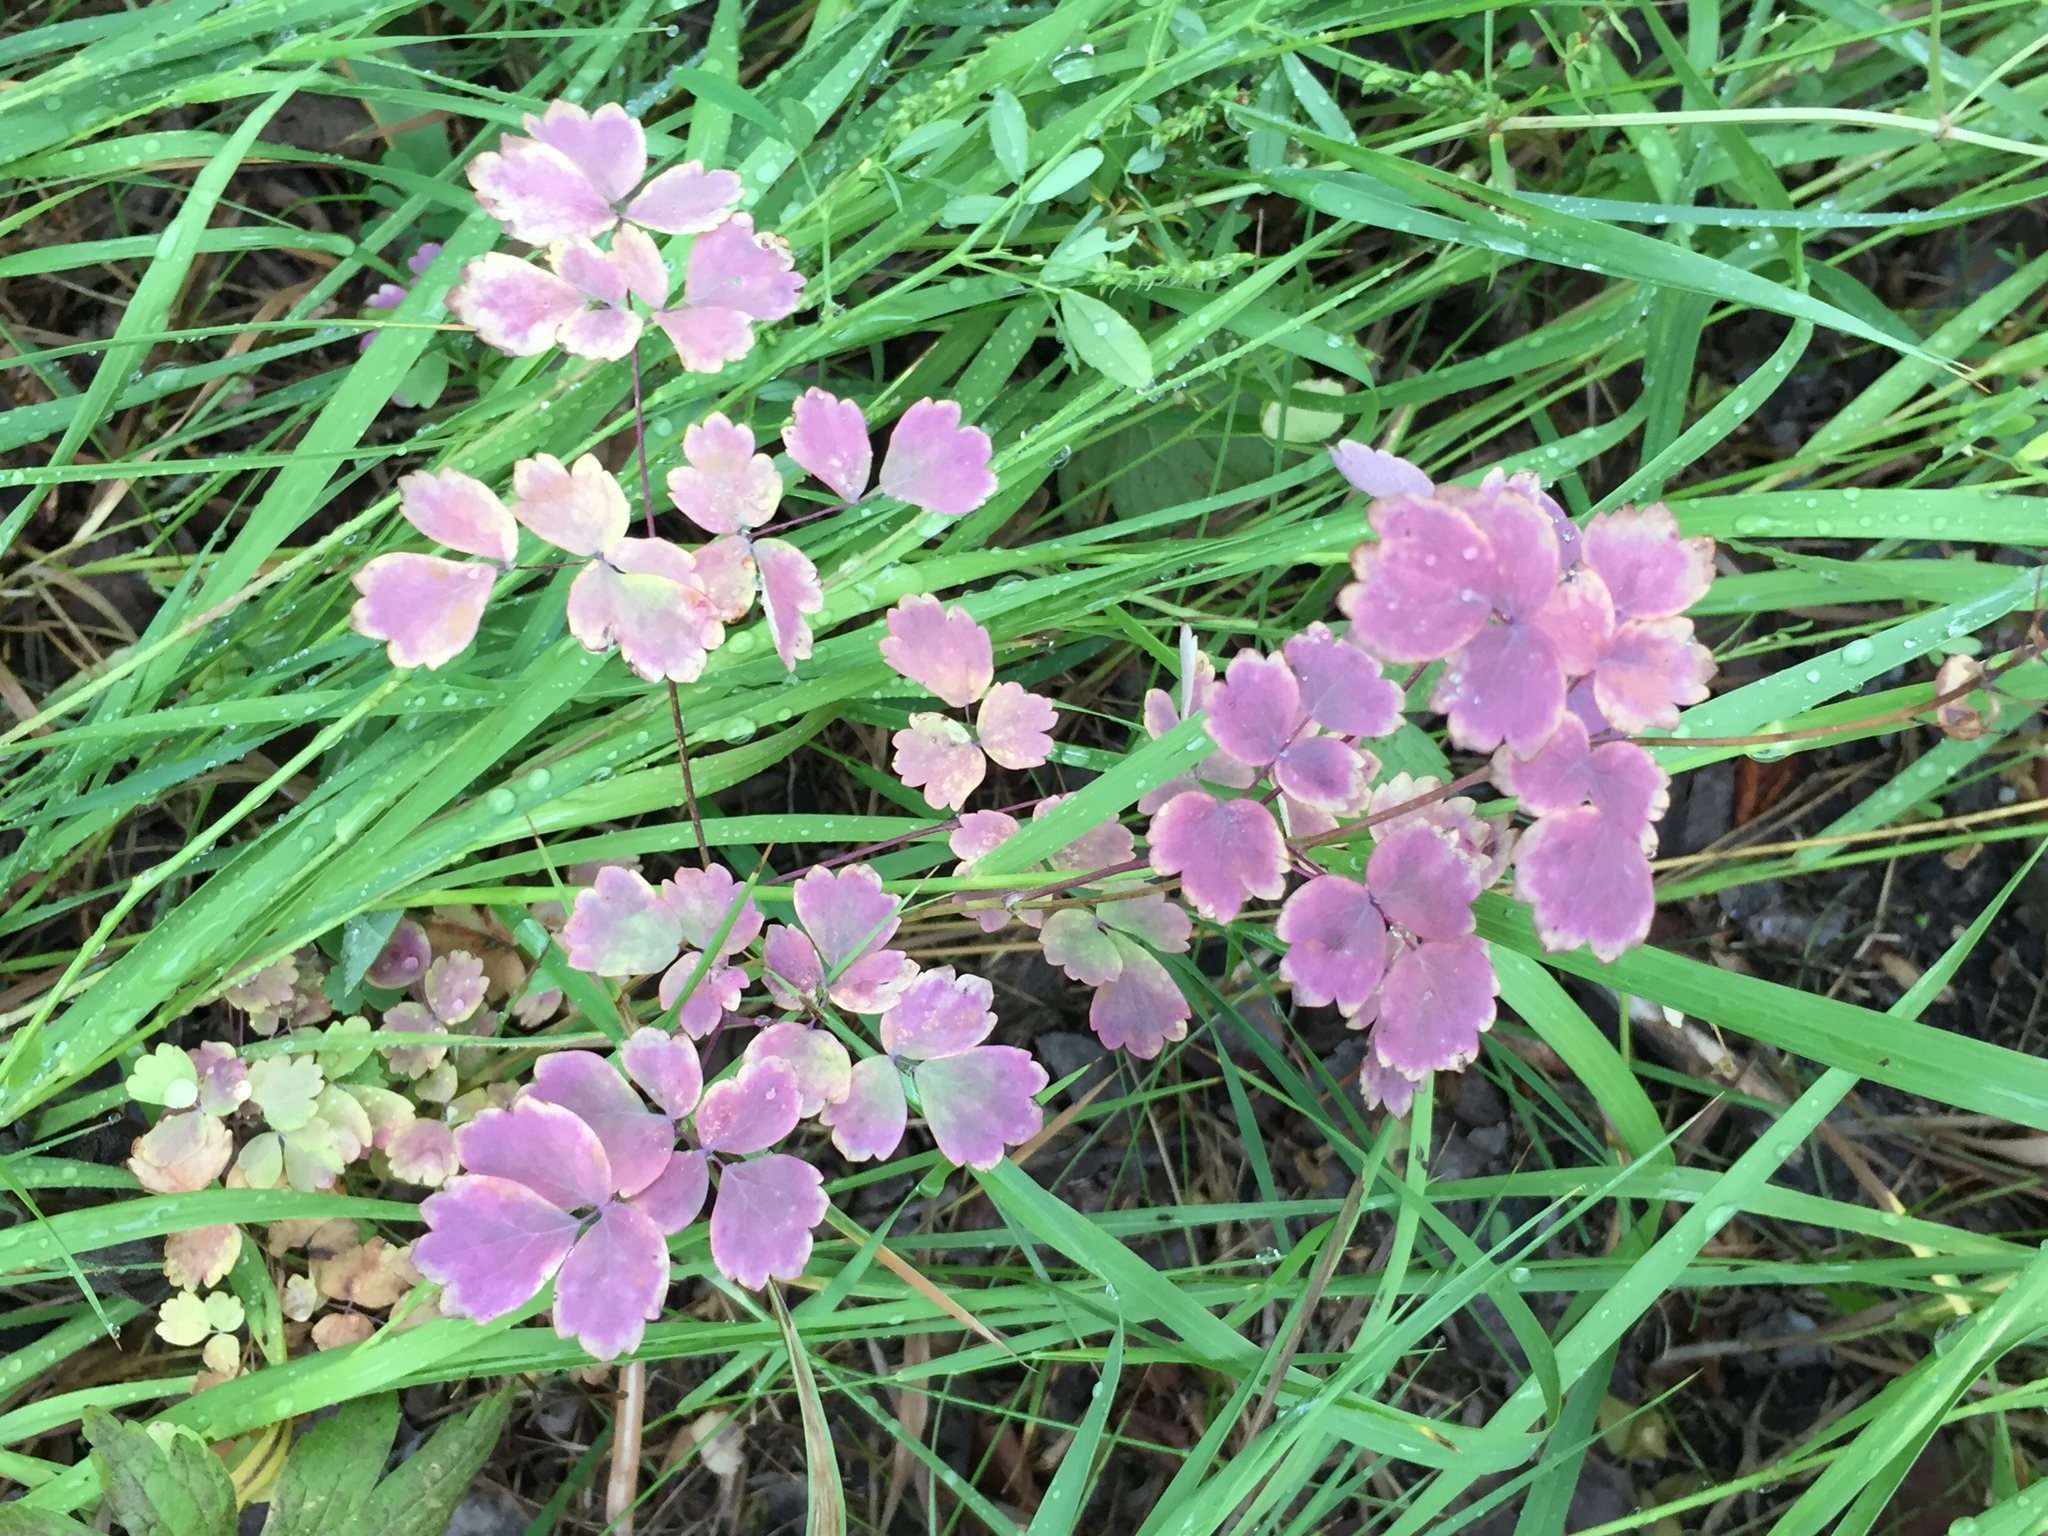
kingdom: Plantae
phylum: Tracheophyta
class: Magnoliopsida
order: Ranunculales
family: Ranunculaceae
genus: Thalictrum
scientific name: Thalictrum venulosum
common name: Early meadow-rue
